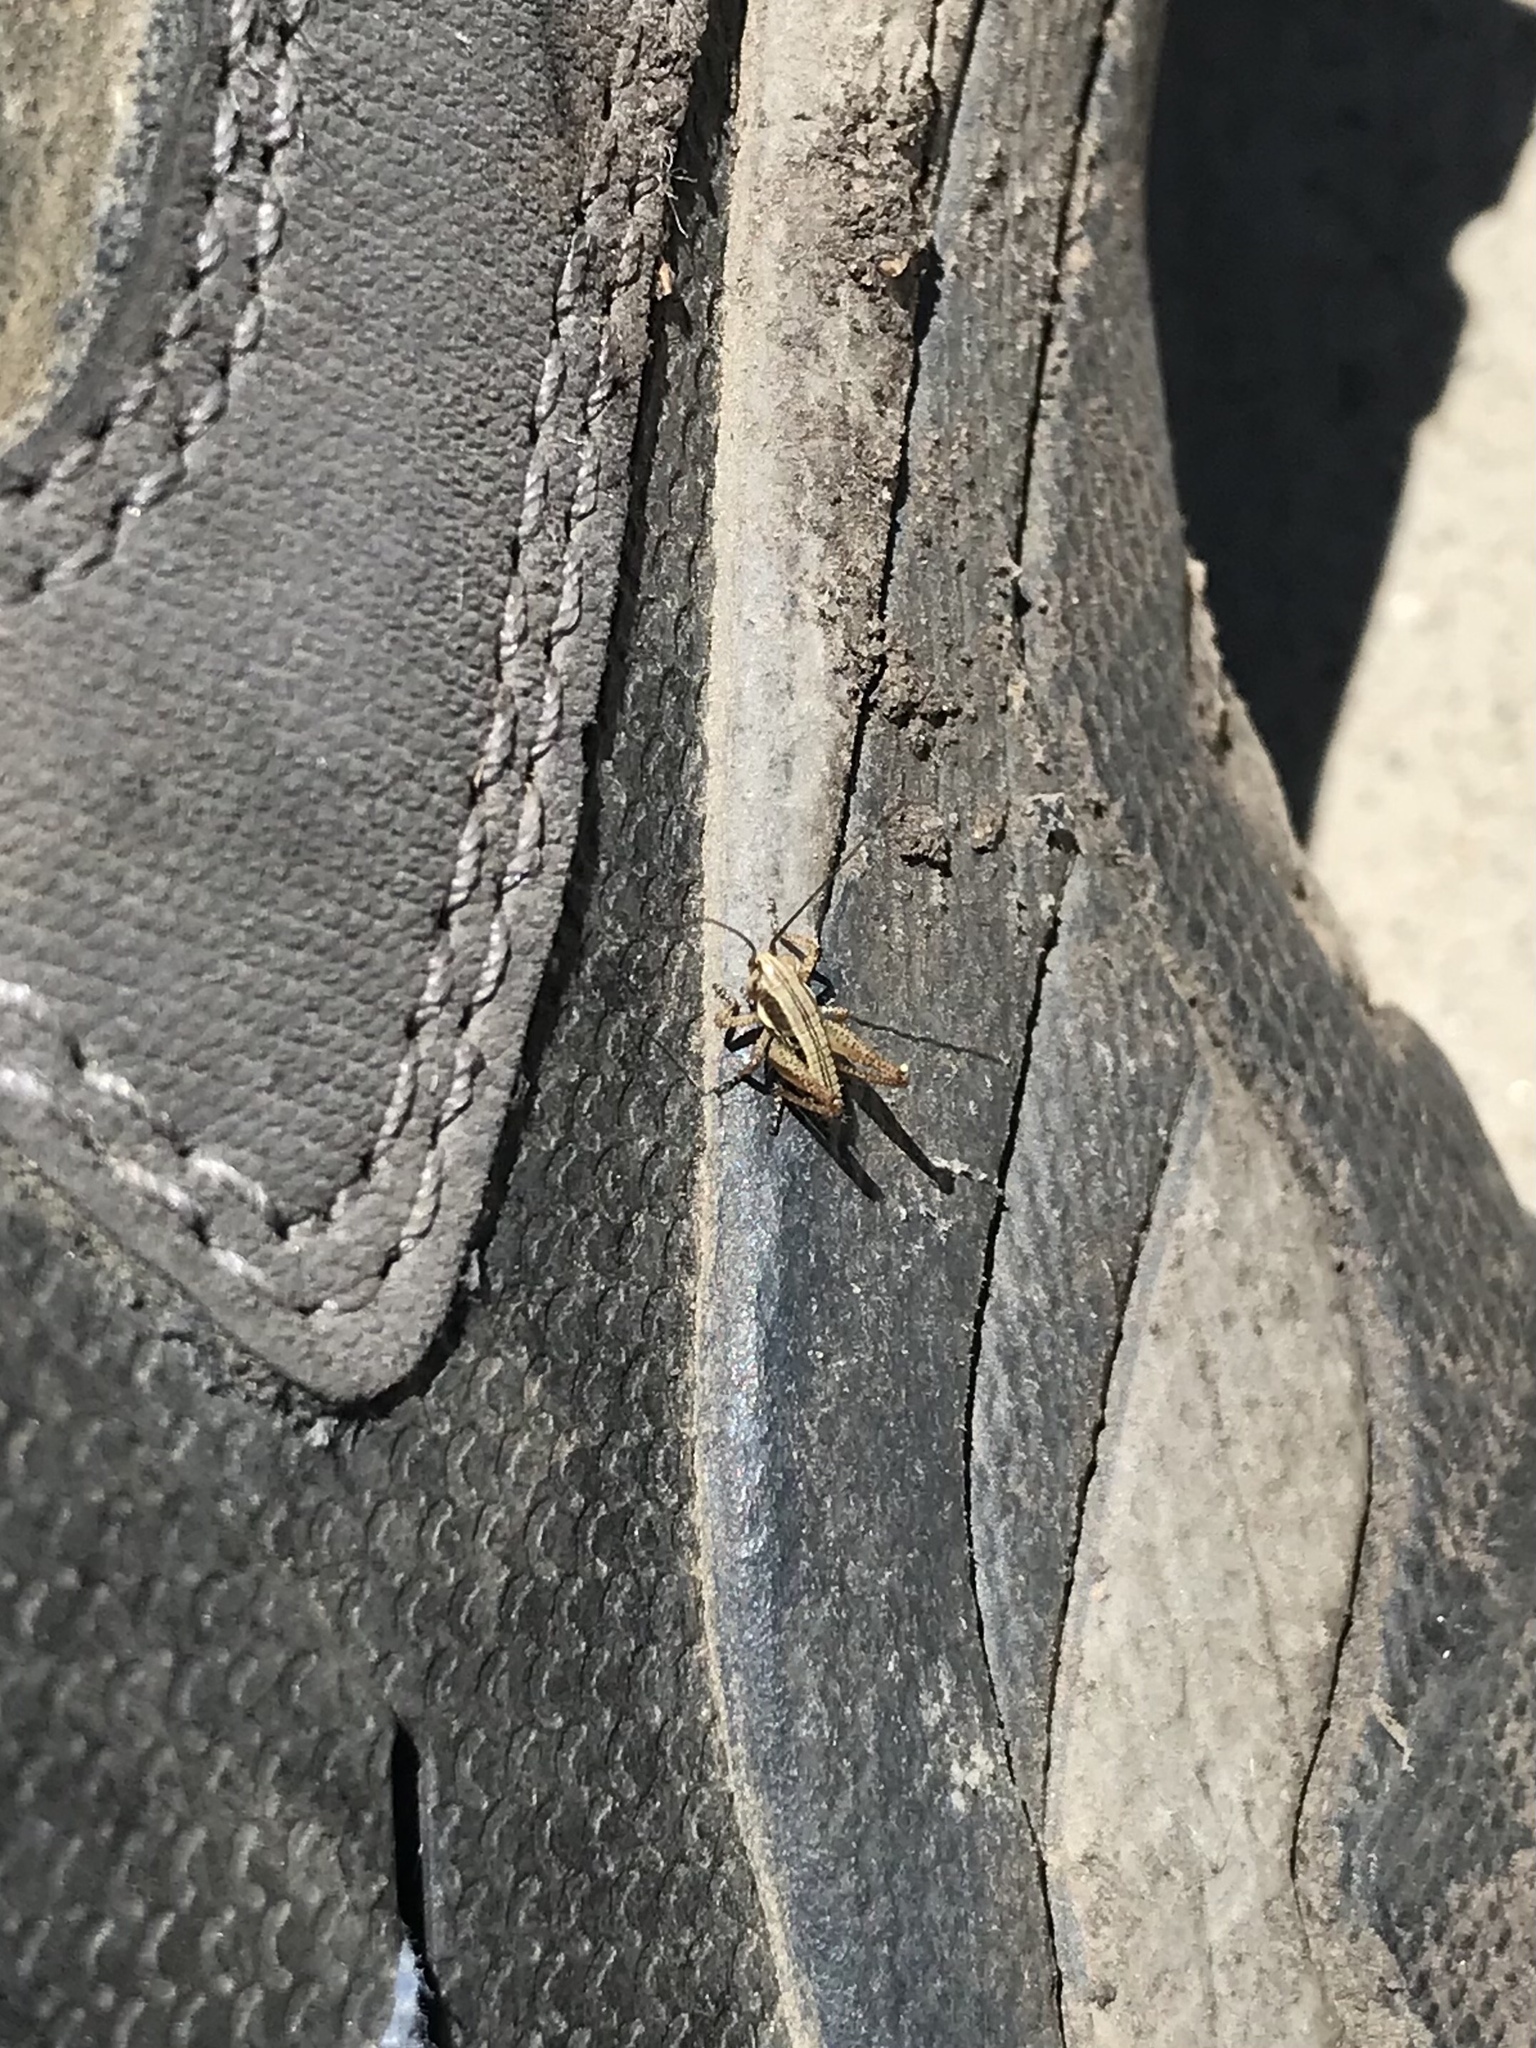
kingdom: Animalia
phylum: Arthropoda
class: Insecta
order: Orthoptera
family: Tettigoniidae
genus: Roeseliana
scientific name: Roeseliana roeselii
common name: Roesel's bush cricket
